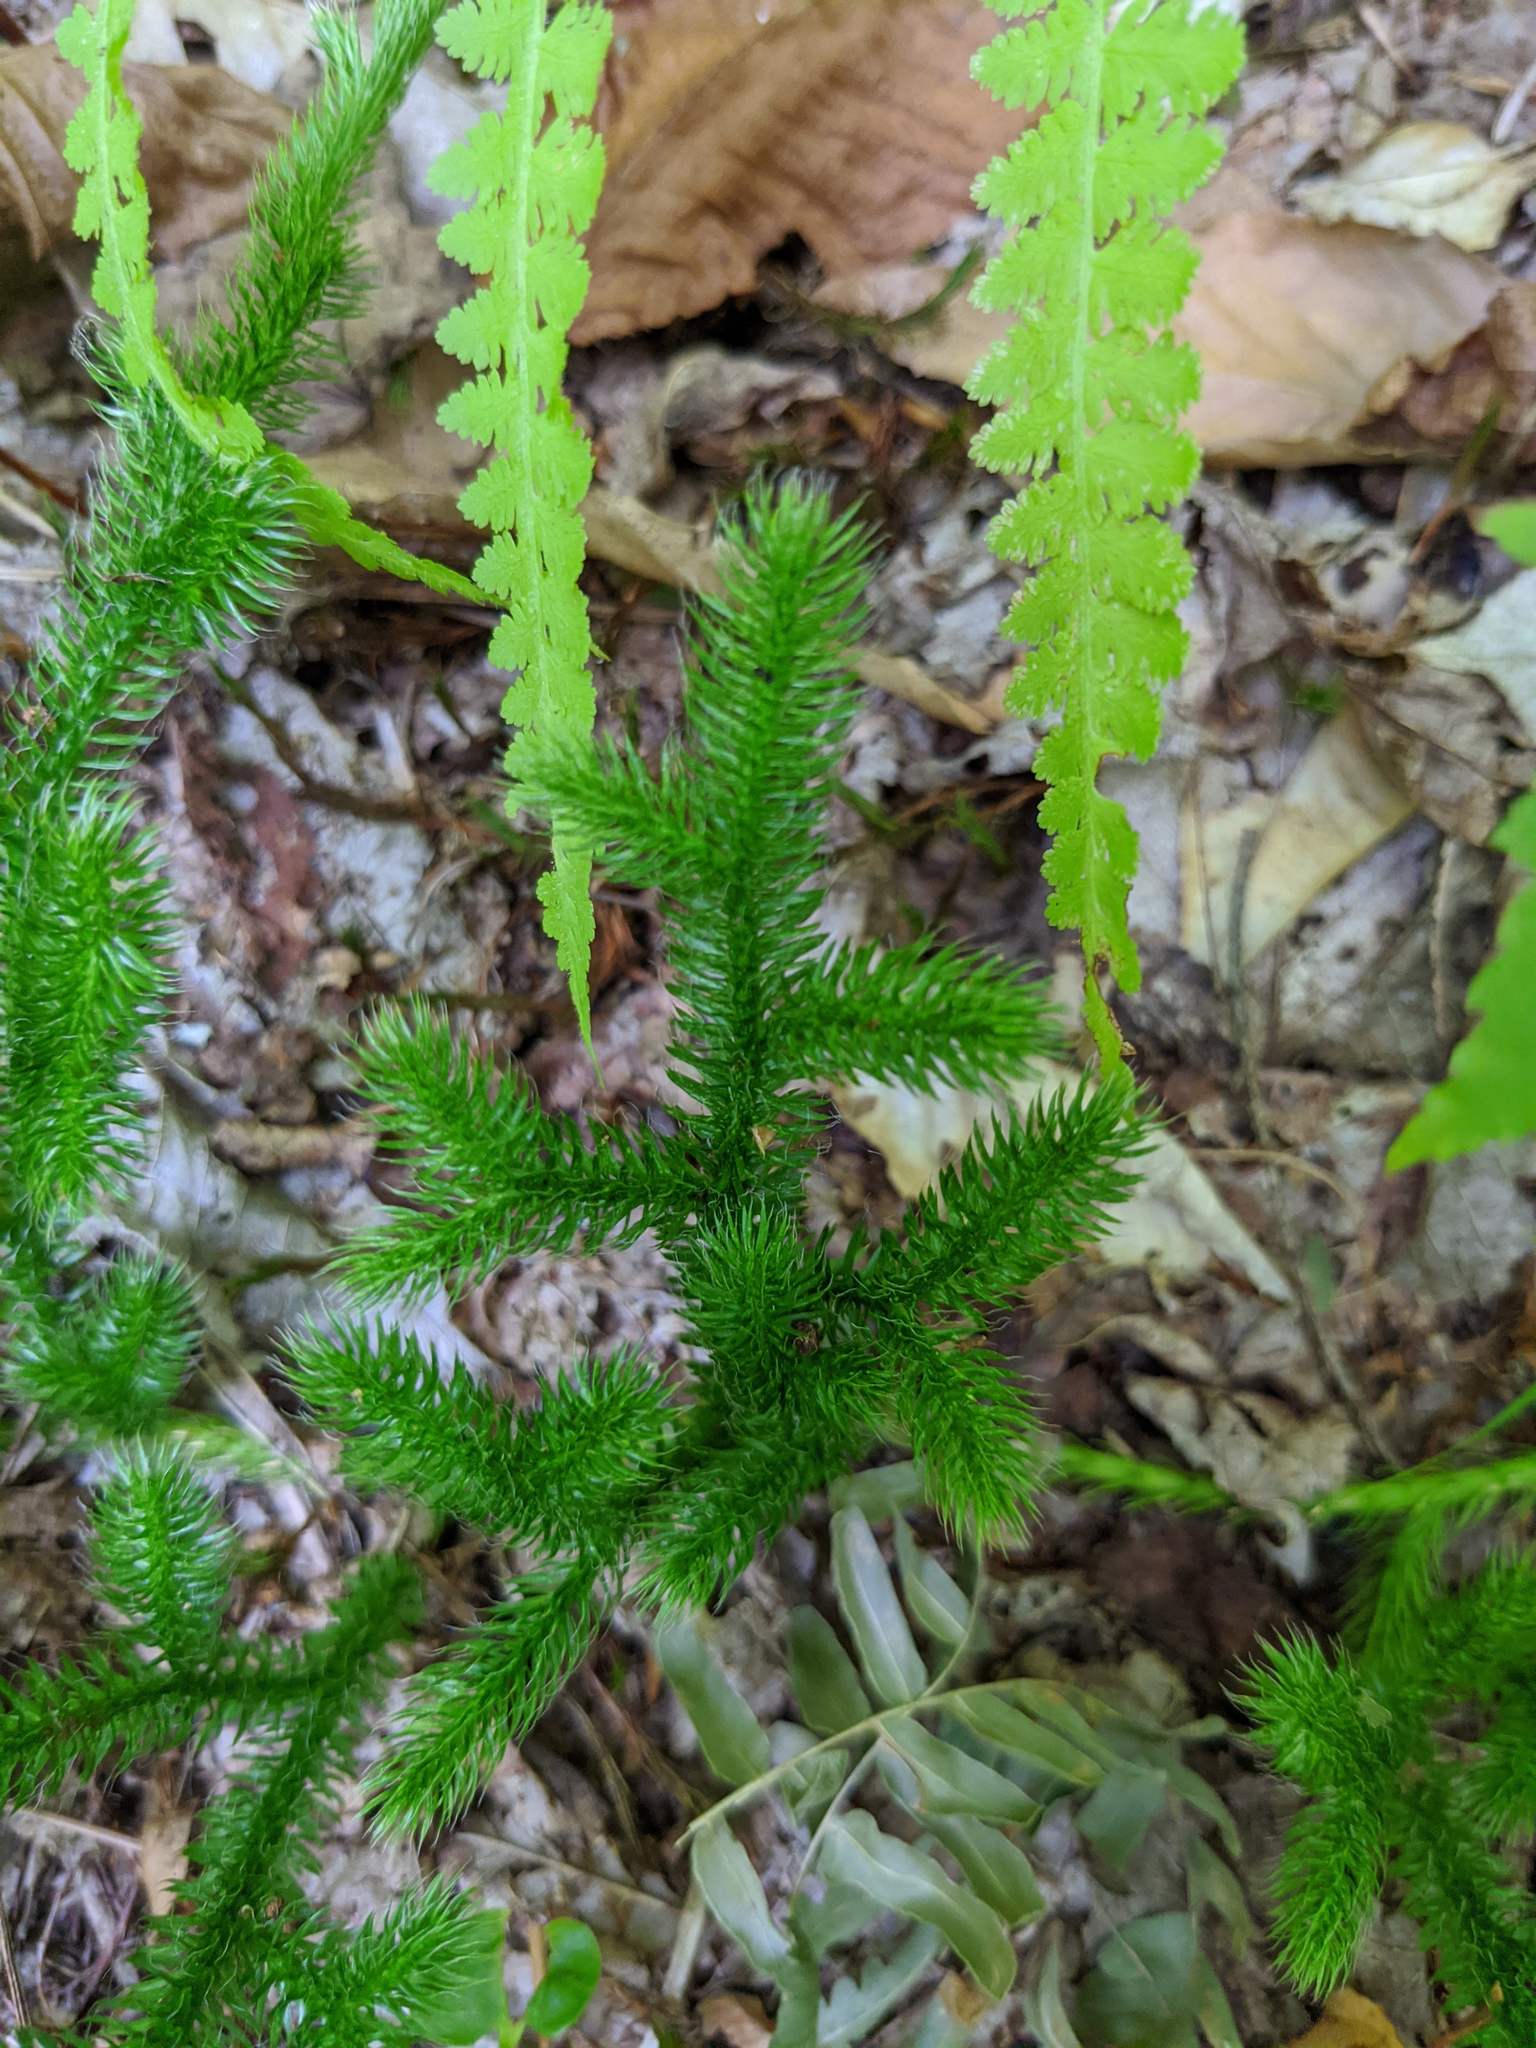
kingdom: Plantae
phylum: Tracheophyta
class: Lycopodiopsida
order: Lycopodiales
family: Lycopodiaceae
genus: Lycopodium
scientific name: Lycopodium clavatum
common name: Stag's-horn clubmoss
